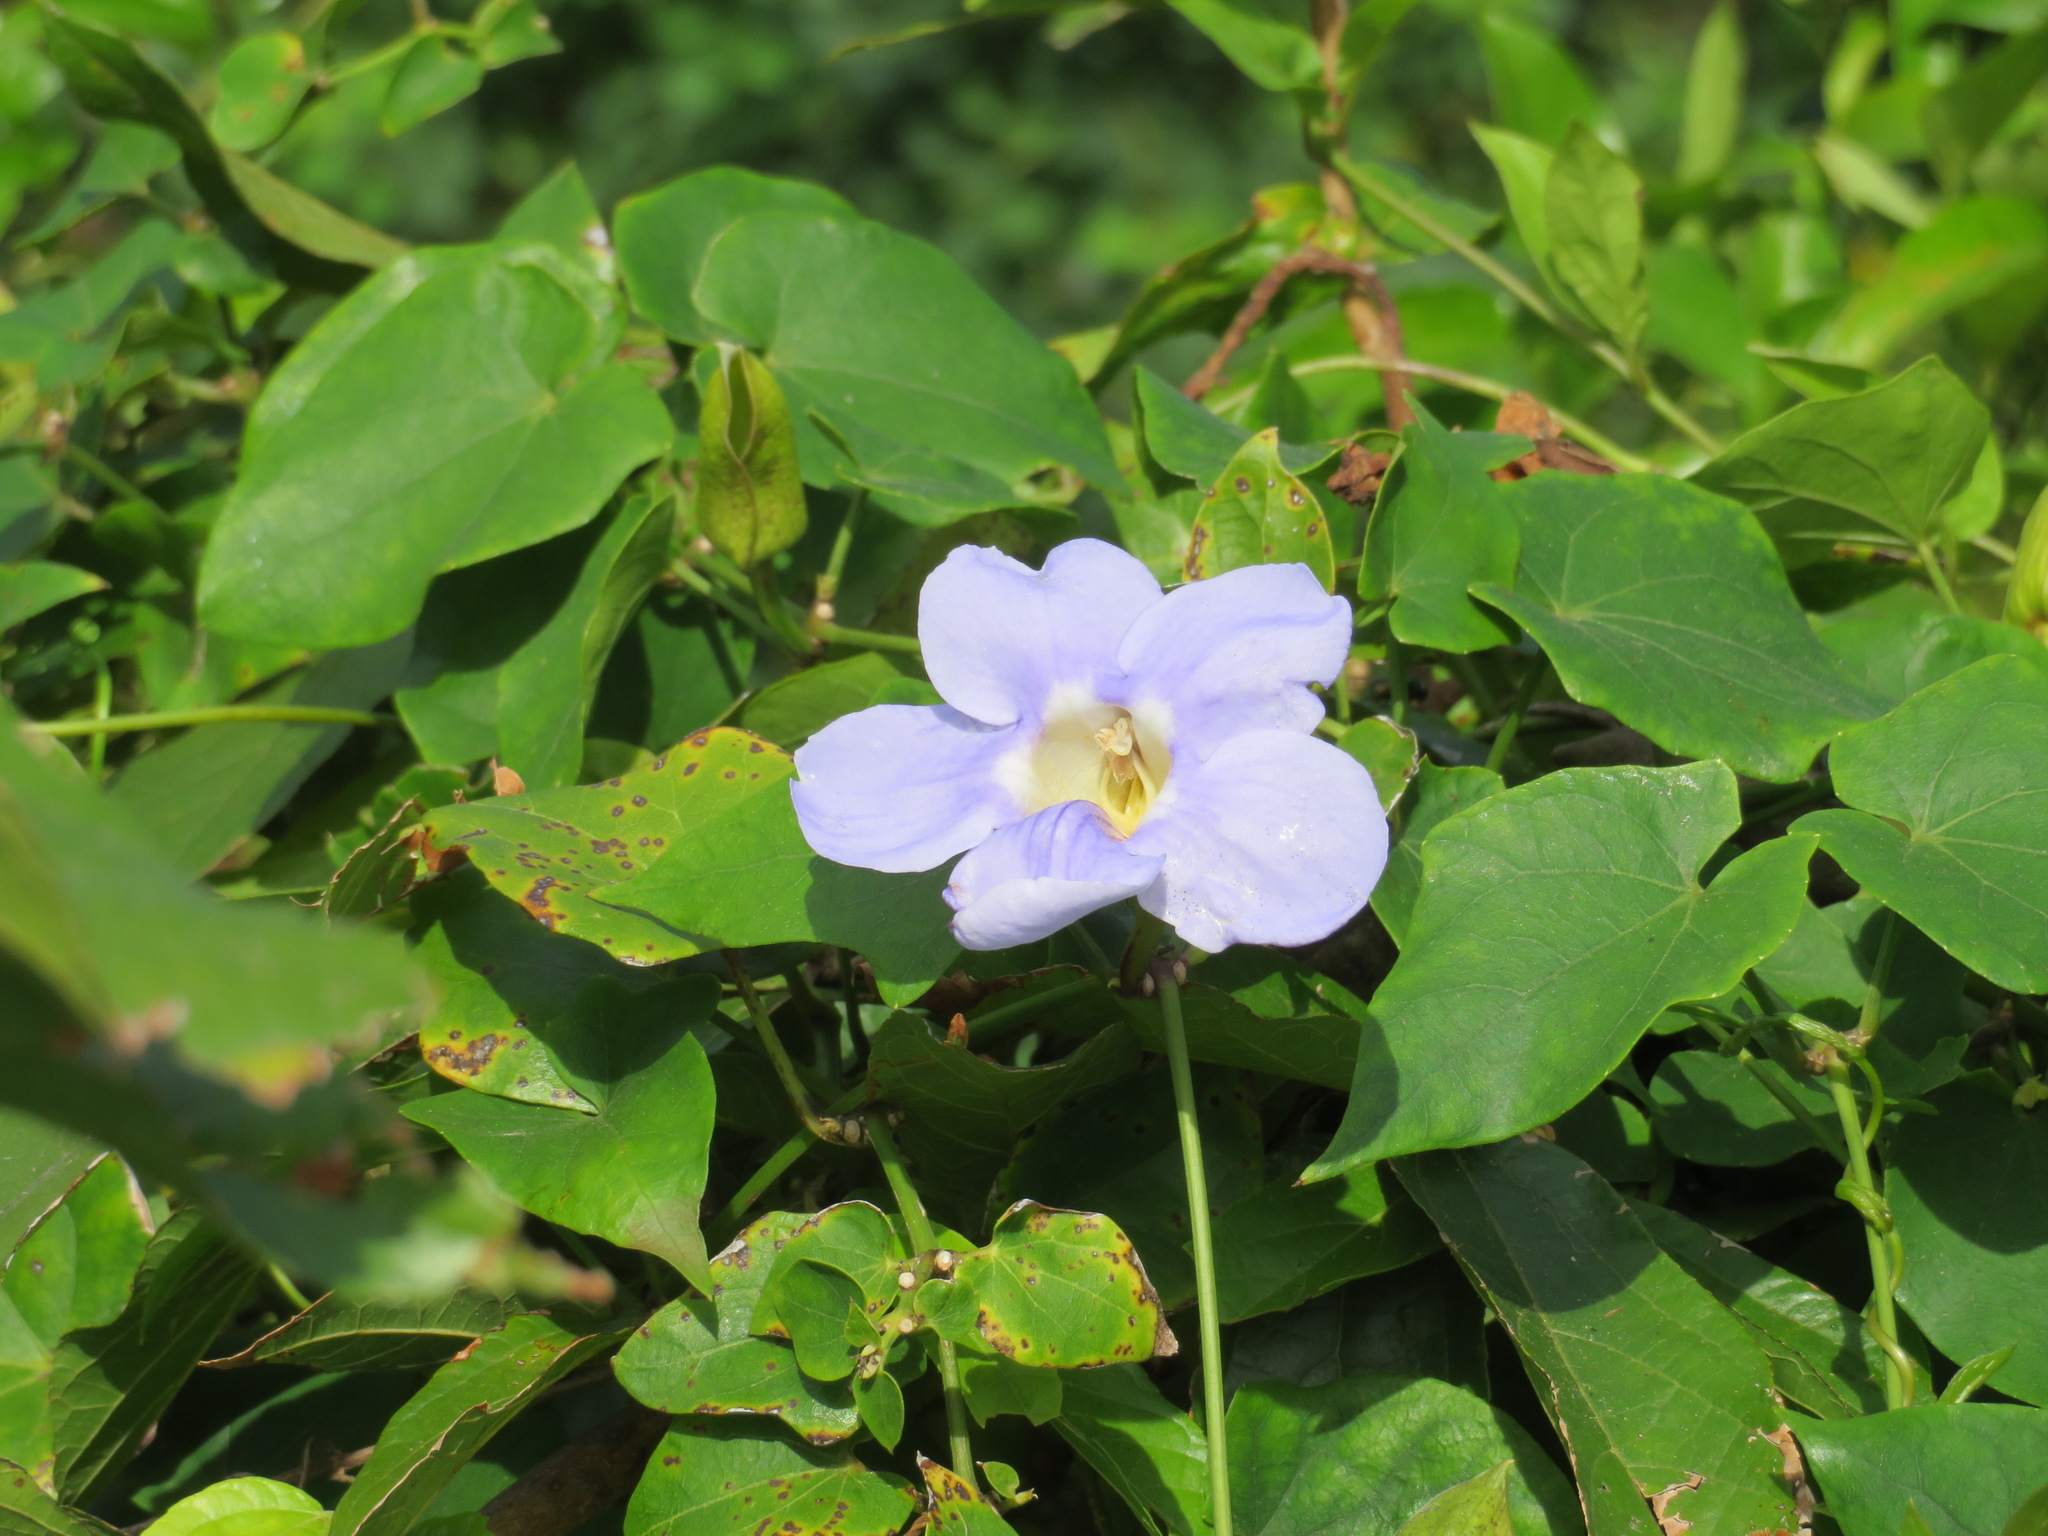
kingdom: Plantae
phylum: Tracheophyta
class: Magnoliopsida
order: Lamiales
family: Acanthaceae
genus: Thunbergia
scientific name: Thunbergia grandiflora
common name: Bengal trumpet
